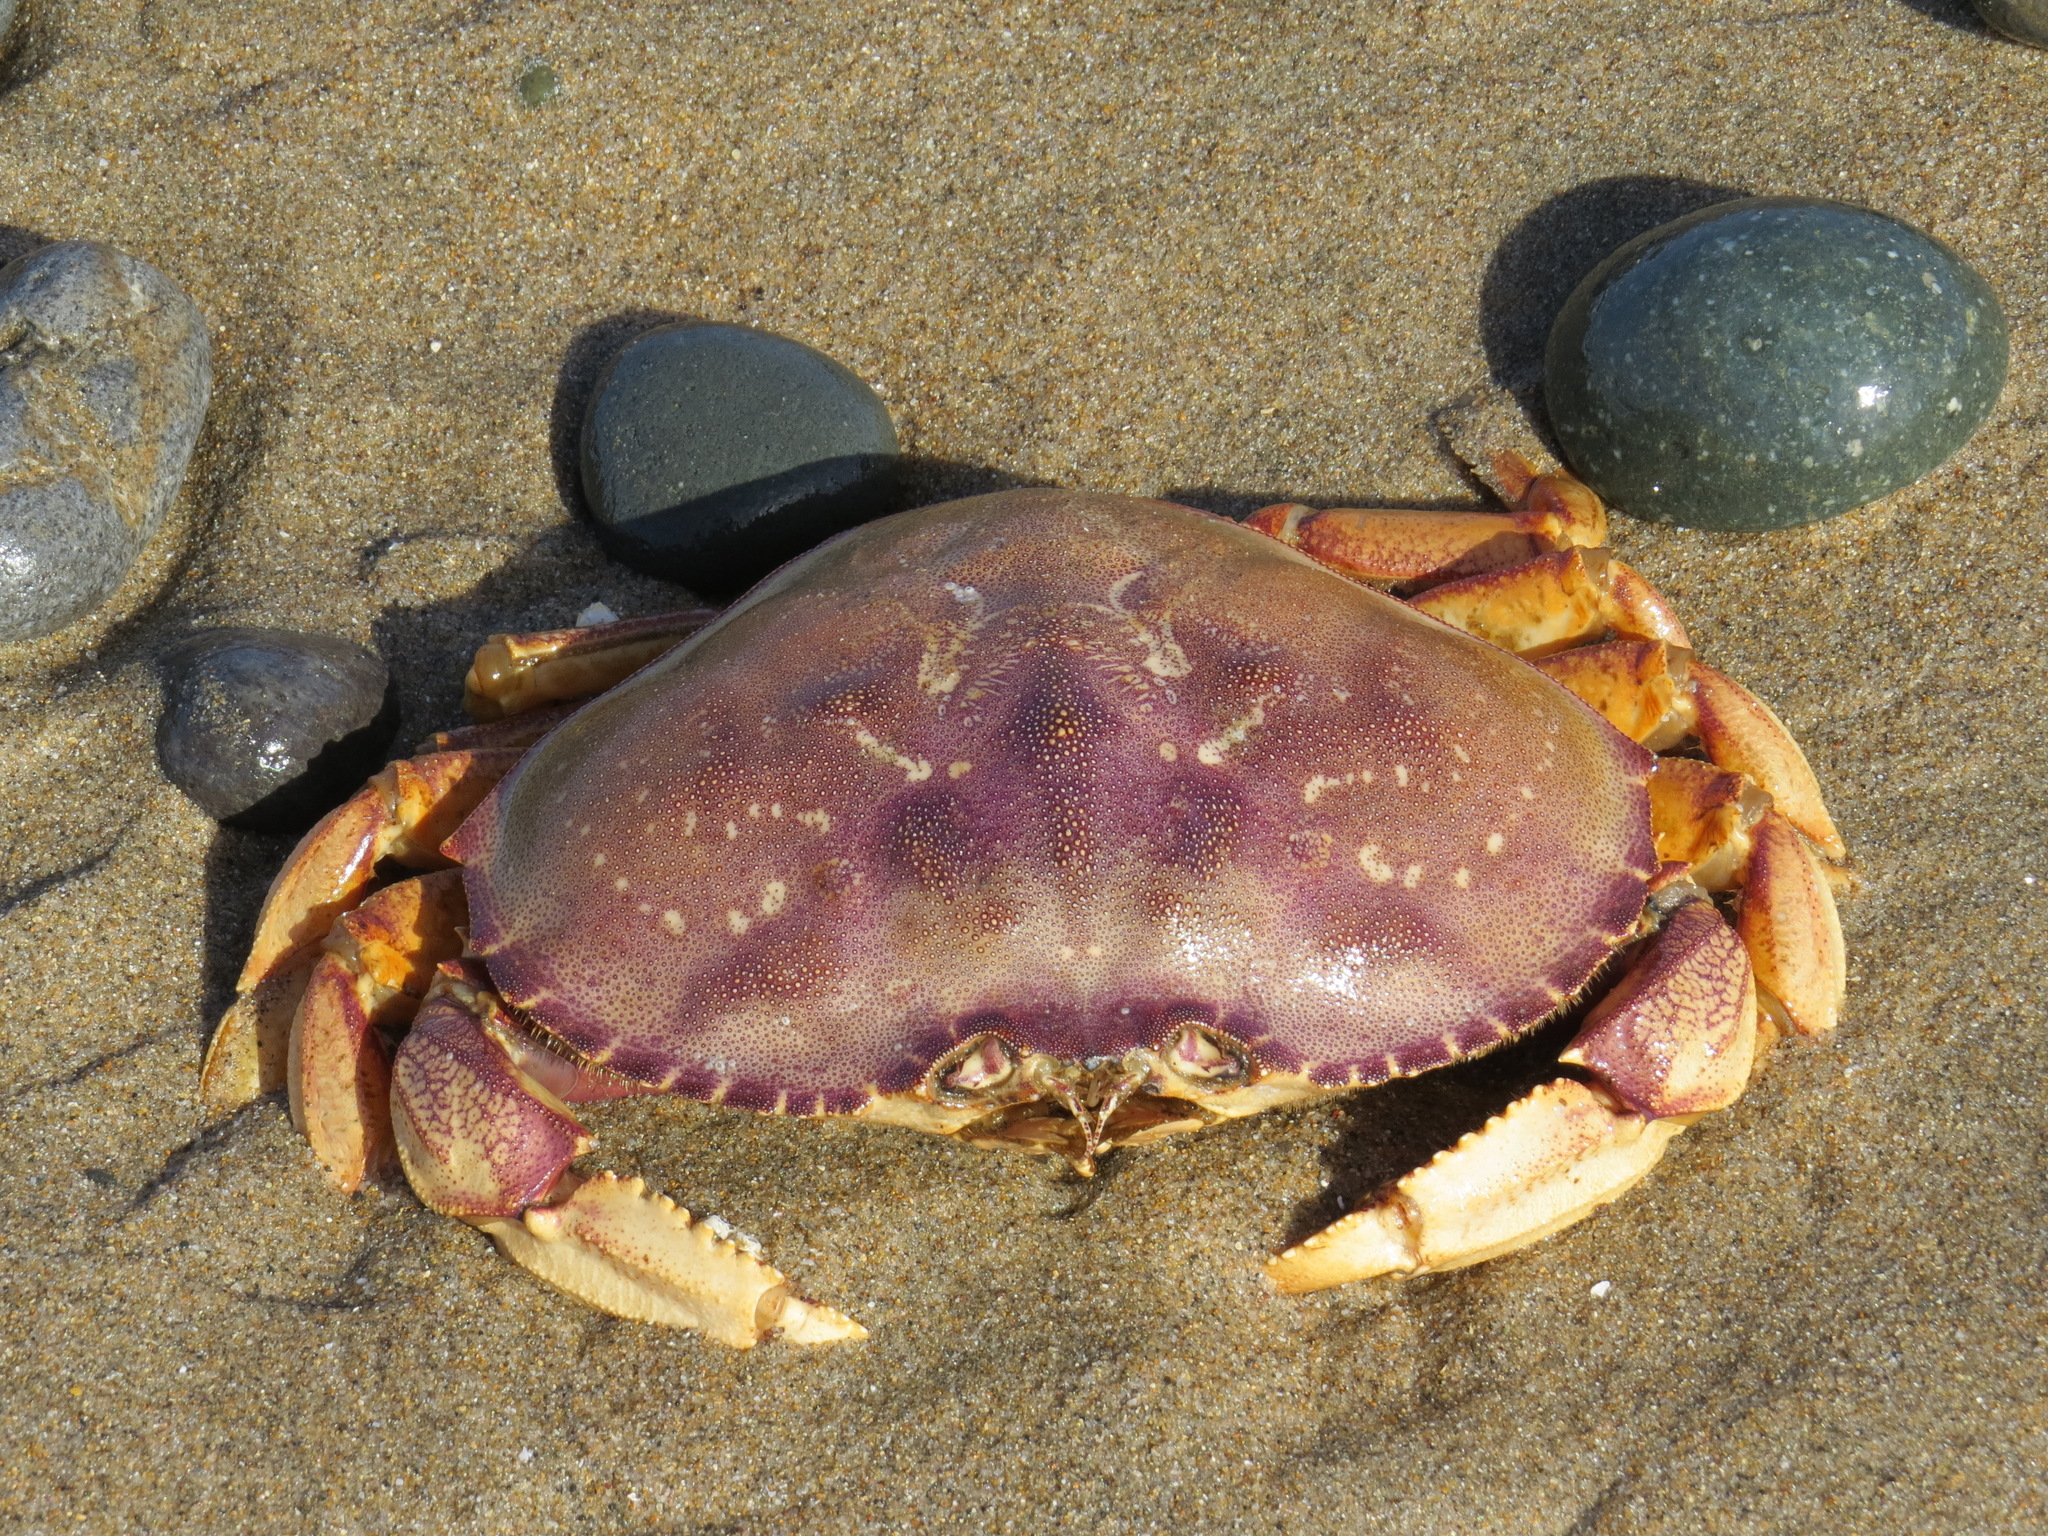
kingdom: Animalia
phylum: Arthropoda
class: Malacostraca
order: Decapoda
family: Cancridae
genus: Metacarcinus
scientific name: Metacarcinus magister
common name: Californian crab
